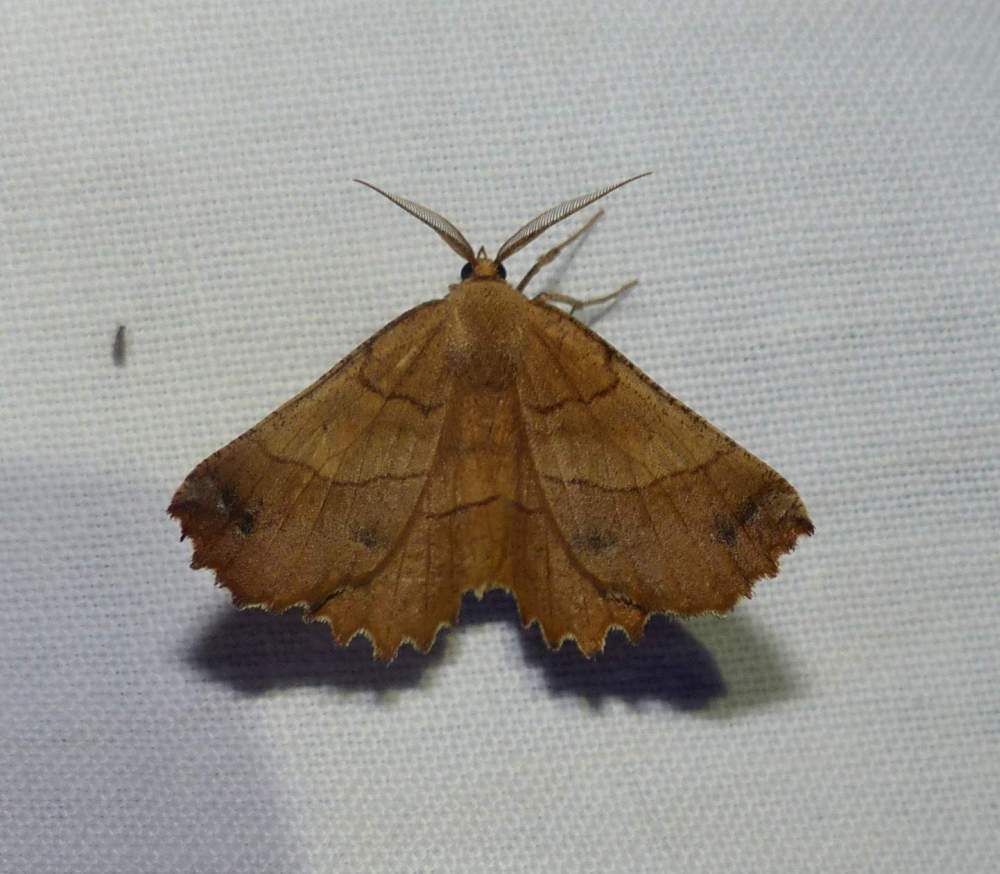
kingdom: Animalia
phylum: Arthropoda
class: Insecta
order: Lepidoptera
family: Geometridae
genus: Euchlaena
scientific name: Euchlaena johnsonaria
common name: Johnson's euchlaena
